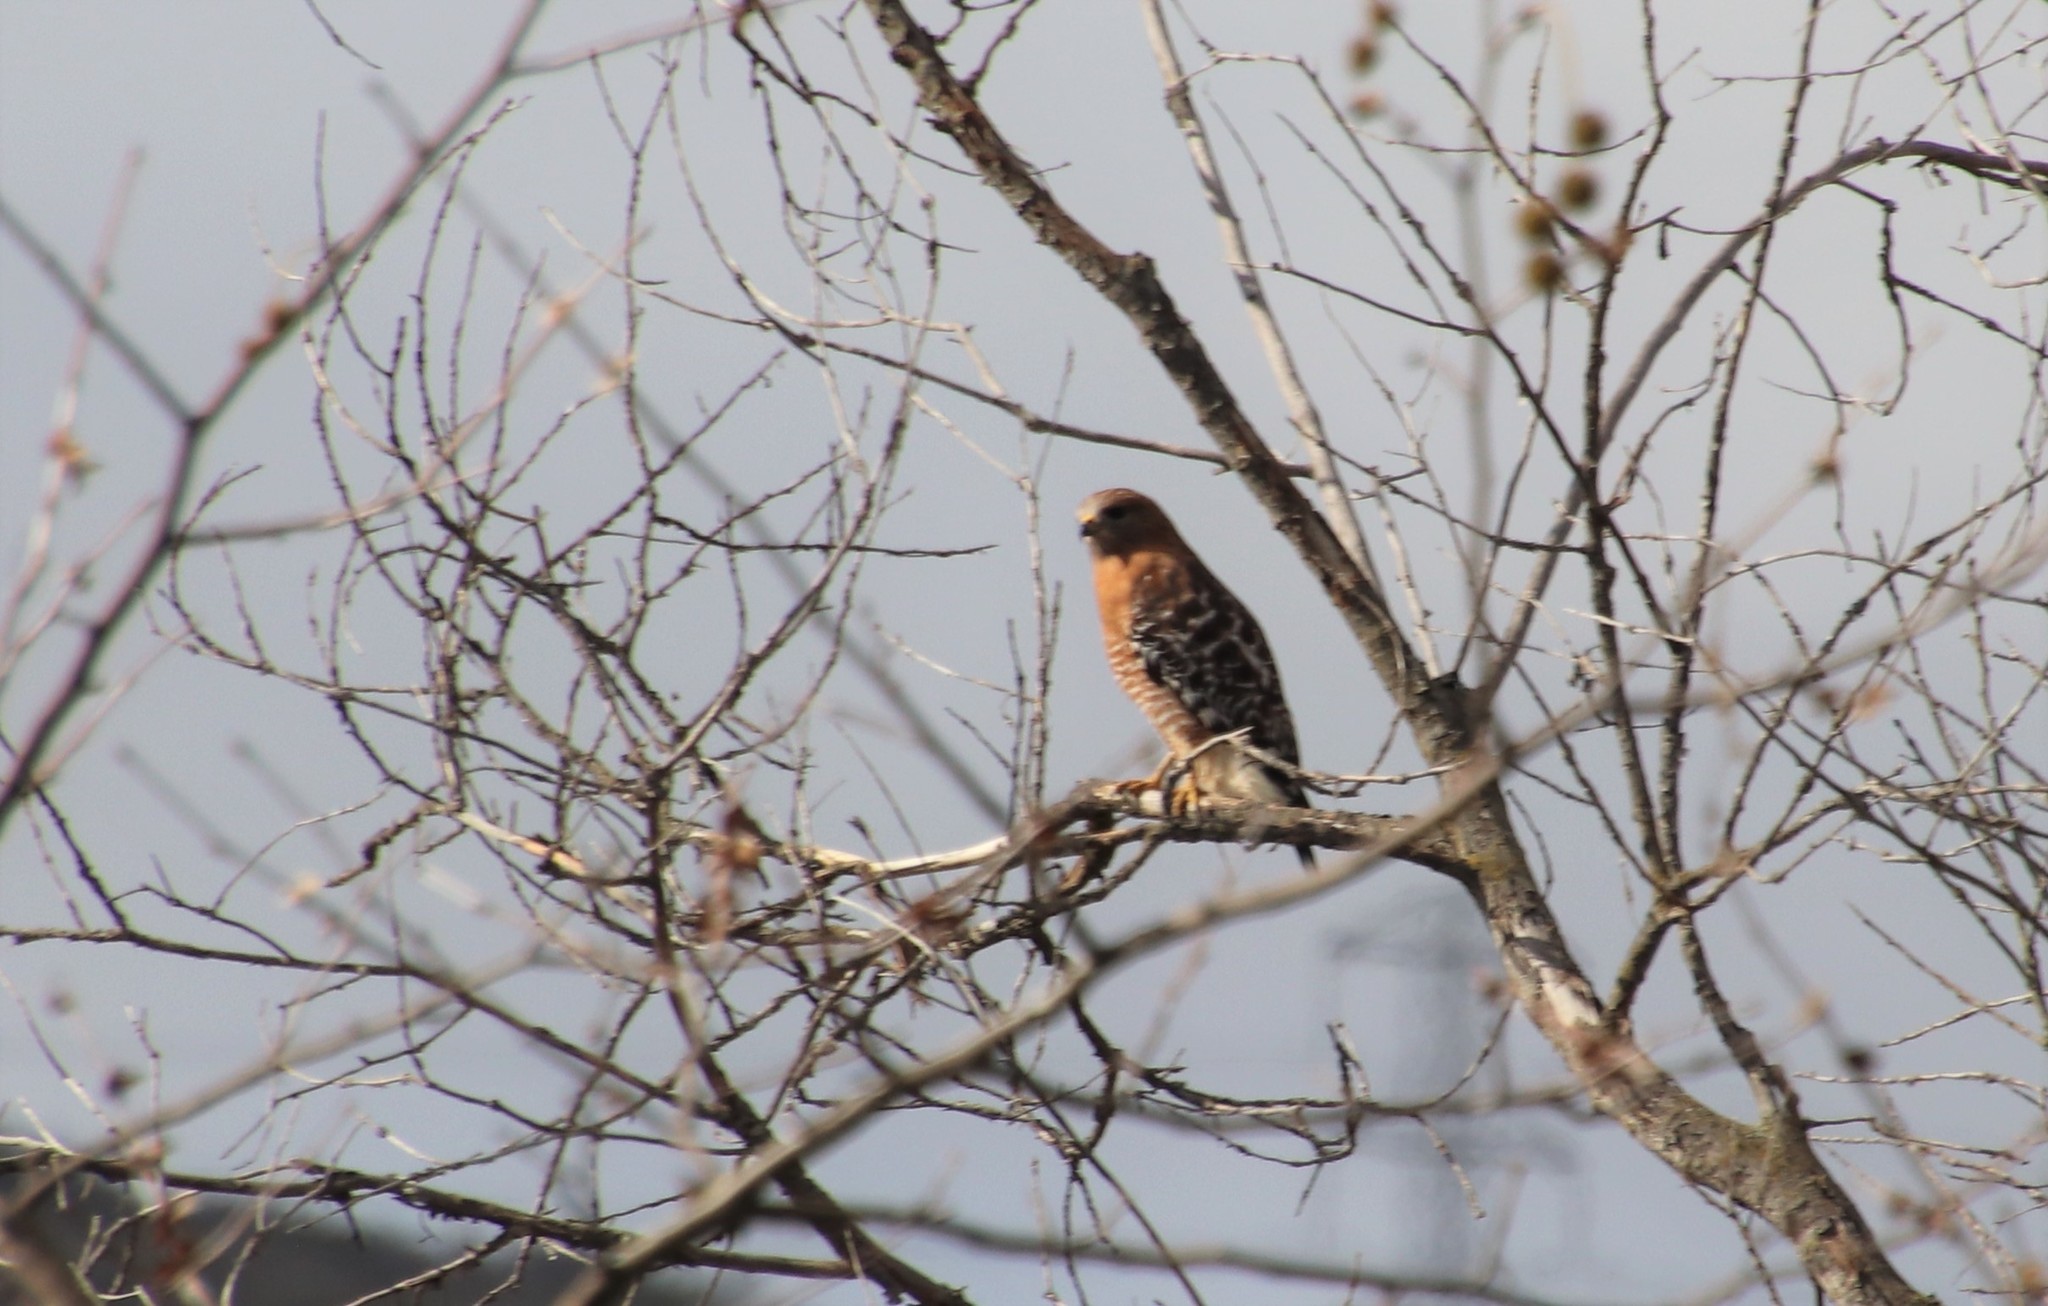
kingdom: Animalia
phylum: Chordata
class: Aves
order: Accipitriformes
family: Accipitridae
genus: Buteo
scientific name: Buteo lineatus
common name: Red-shouldered hawk
